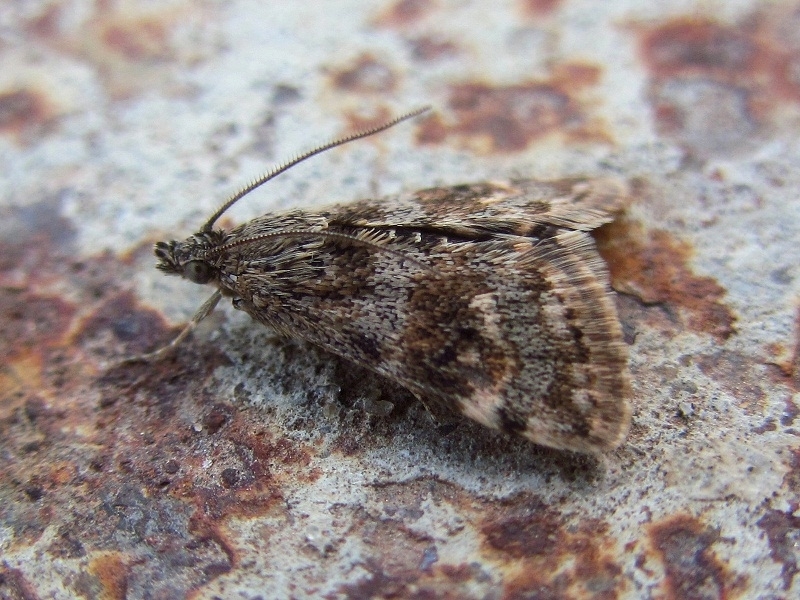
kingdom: Animalia
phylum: Arthropoda
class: Insecta
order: Lepidoptera
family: Crambidae
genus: Noctuelia
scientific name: Noctuelia Aporodes floralis
